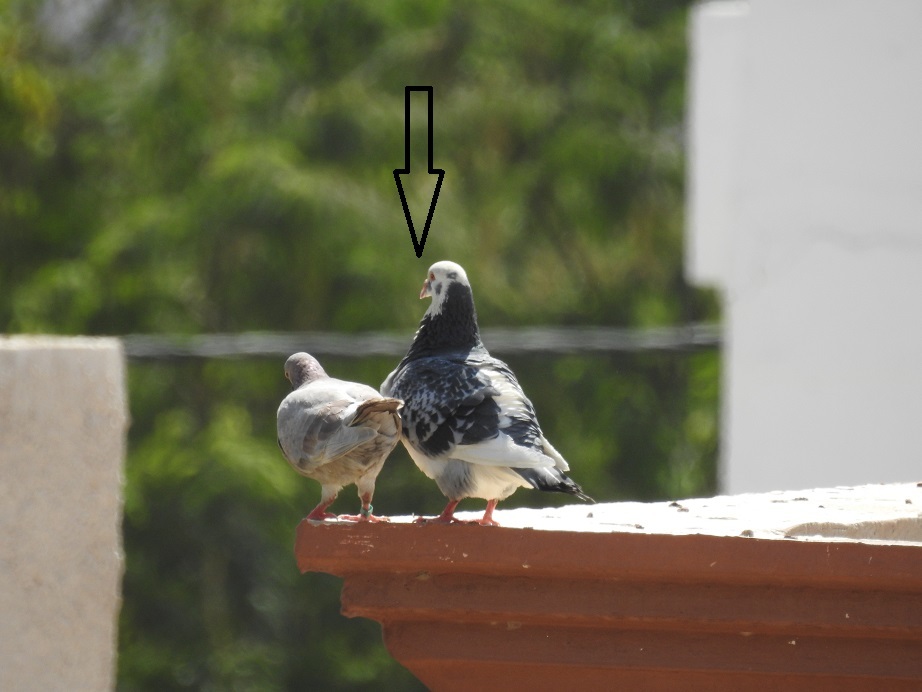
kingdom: Animalia
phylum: Chordata
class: Aves
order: Columbiformes
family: Columbidae
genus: Columba
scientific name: Columba livia
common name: Rock pigeon
